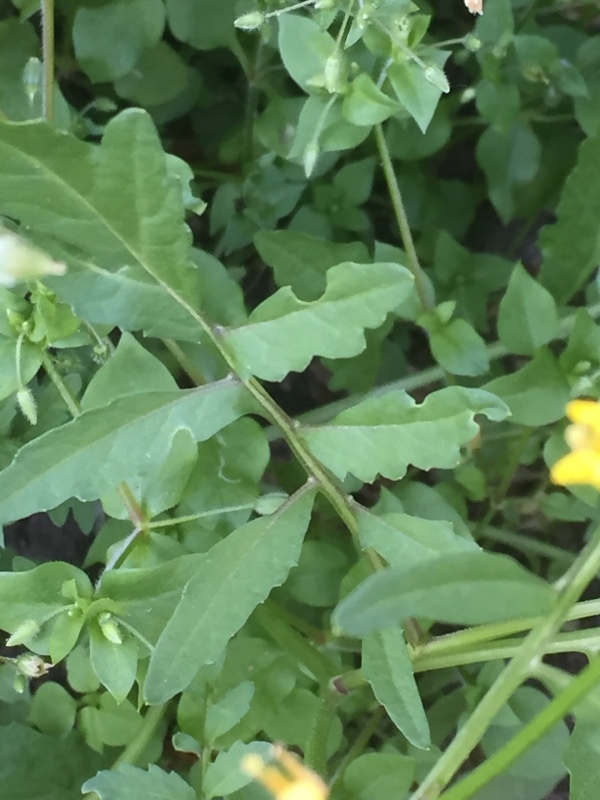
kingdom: Plantae
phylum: Tracheophyta
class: Magnoliopsida
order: Brassicales
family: Brassicaceae
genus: Rorippa
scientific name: Rorippa sylvestris
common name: Creeping yellowcress
